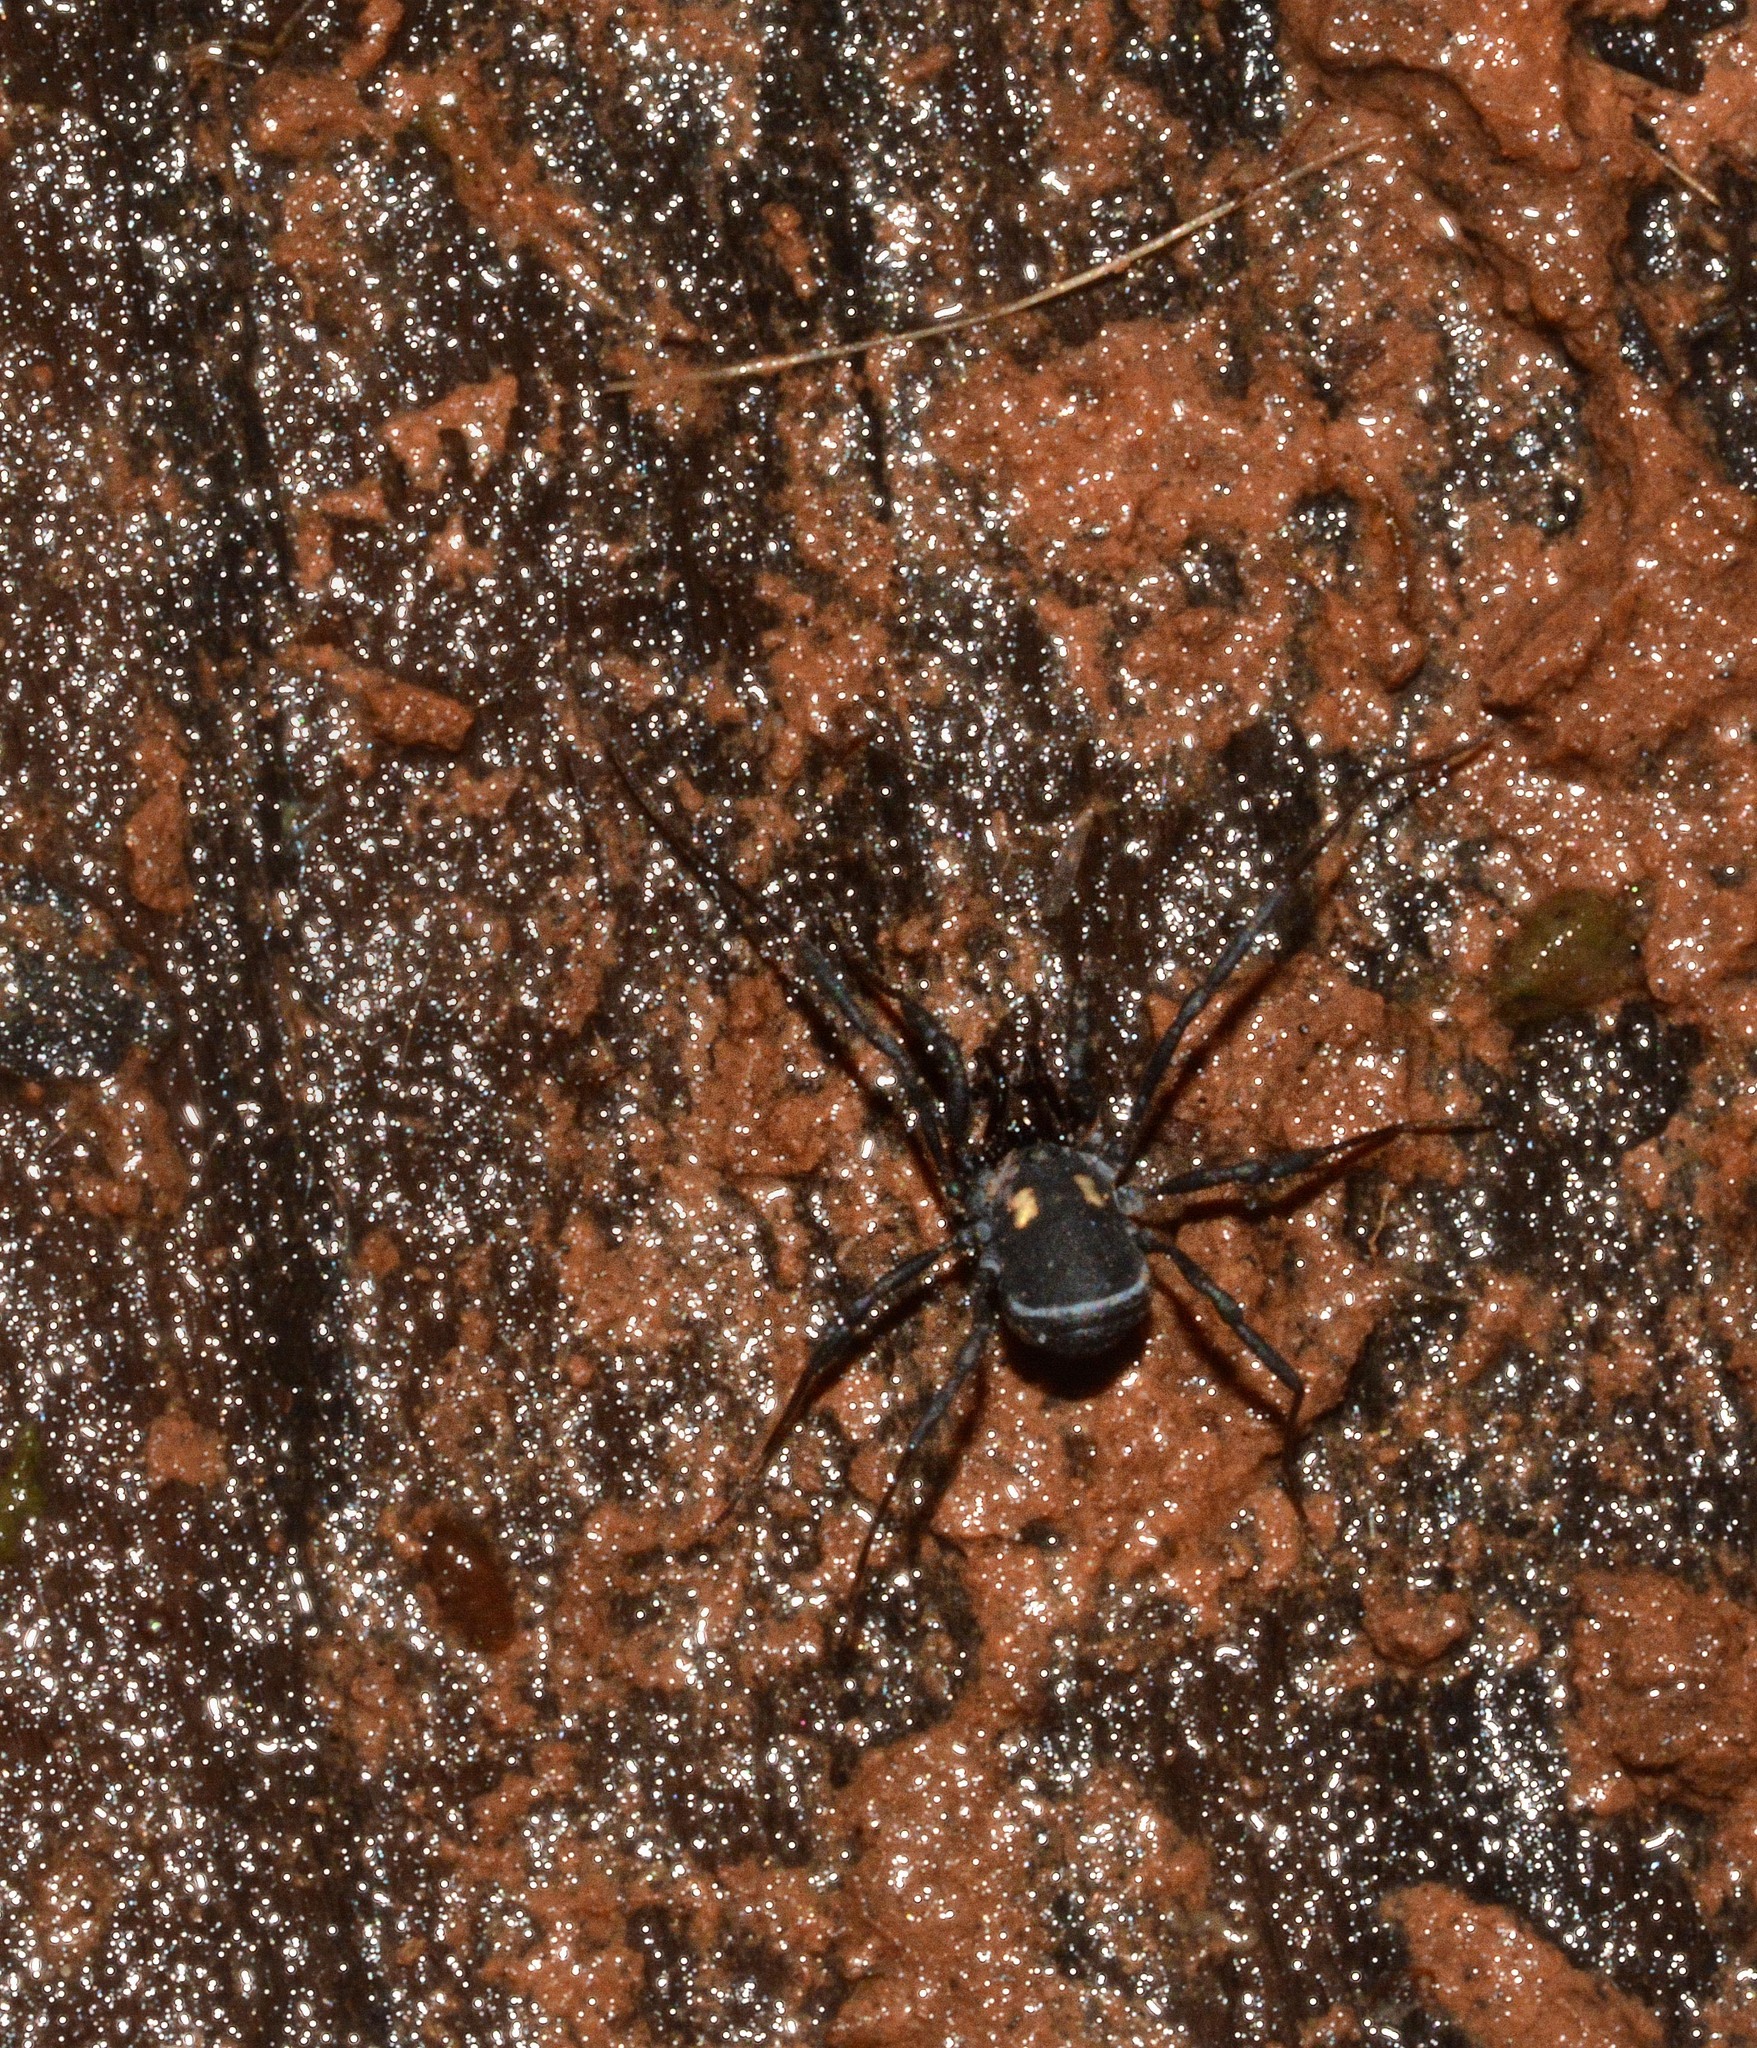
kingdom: Animalia
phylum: Arthropoda
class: Arachnida
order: Opiliones
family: Nemastomatidae
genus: Nemastoma
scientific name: Nemastoma bimaculatum
